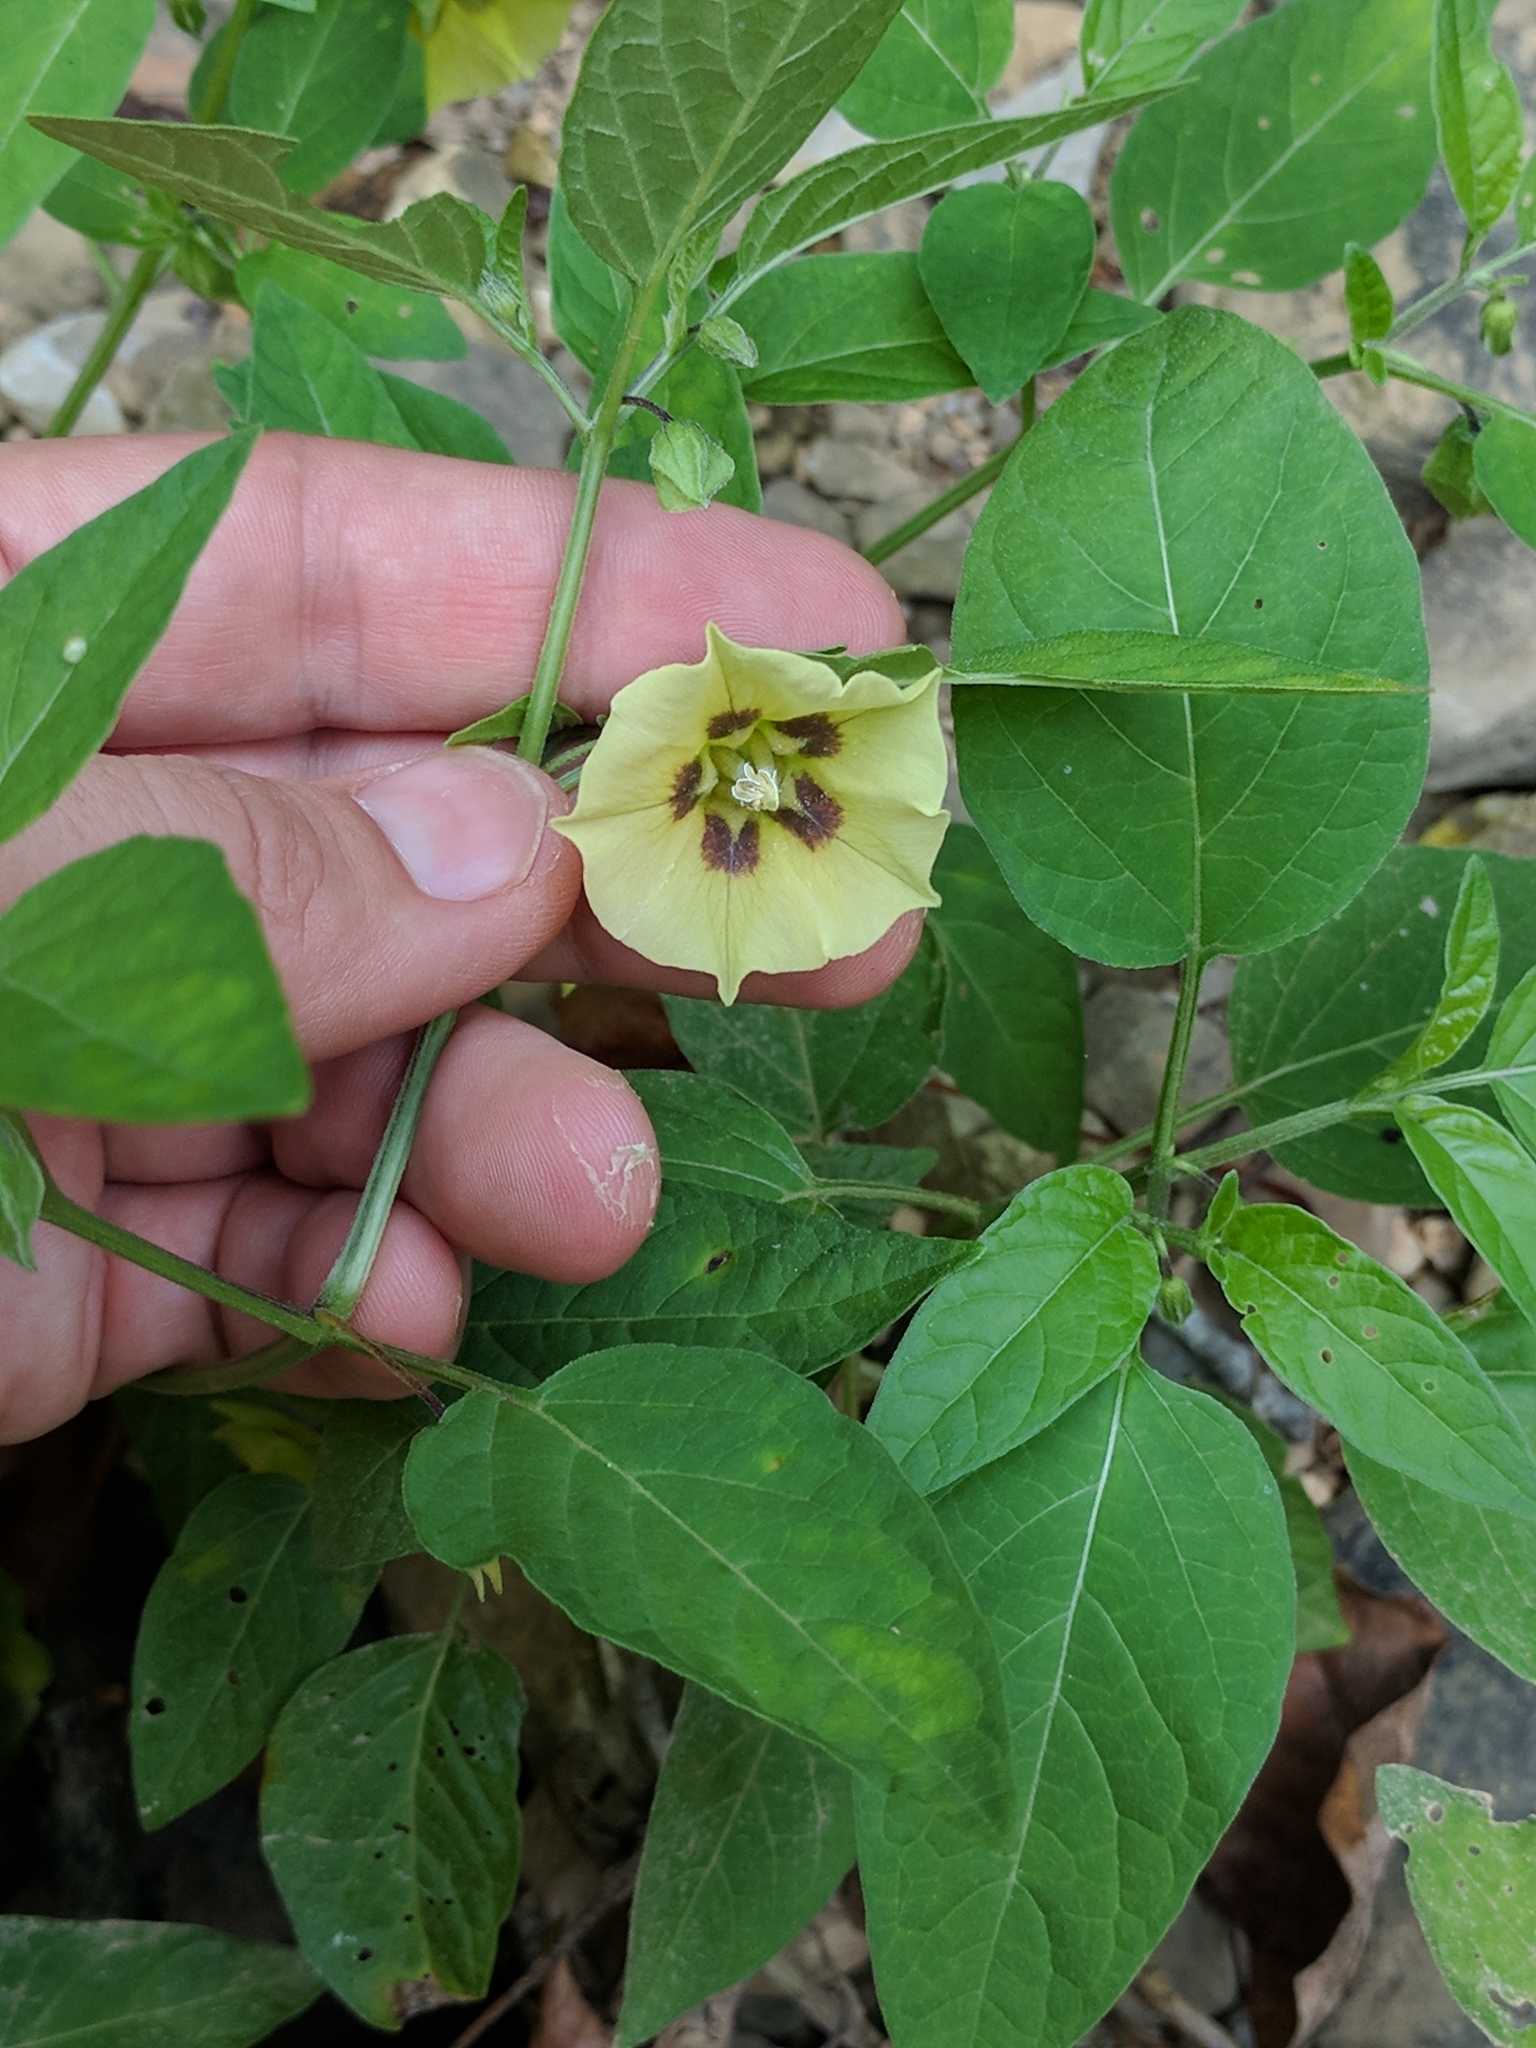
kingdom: Plantae
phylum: Tracheophyta
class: Magnoliopsida
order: Solanales
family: Solanaceae
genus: Physalis
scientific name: Physalis longifolia
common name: Common ground-cherry
